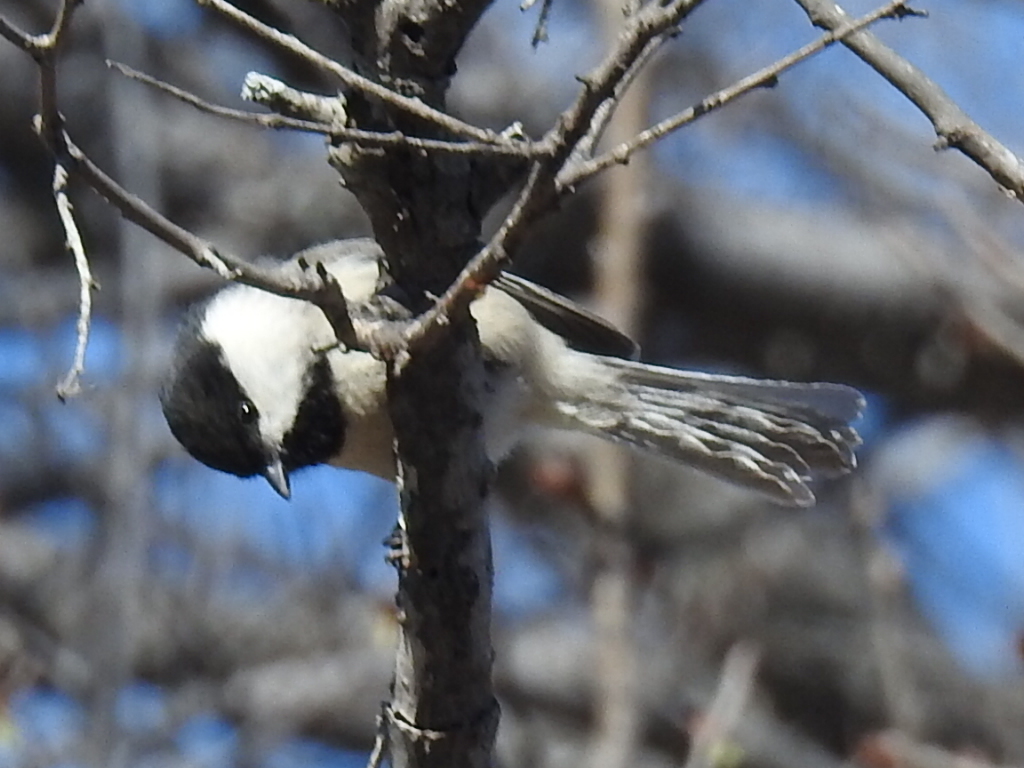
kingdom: Animalia
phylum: Chordata
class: Aves
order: Passeriformes
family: Paridae
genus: Poecile
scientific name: Poecile carolinensis
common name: Carolina chickadee
